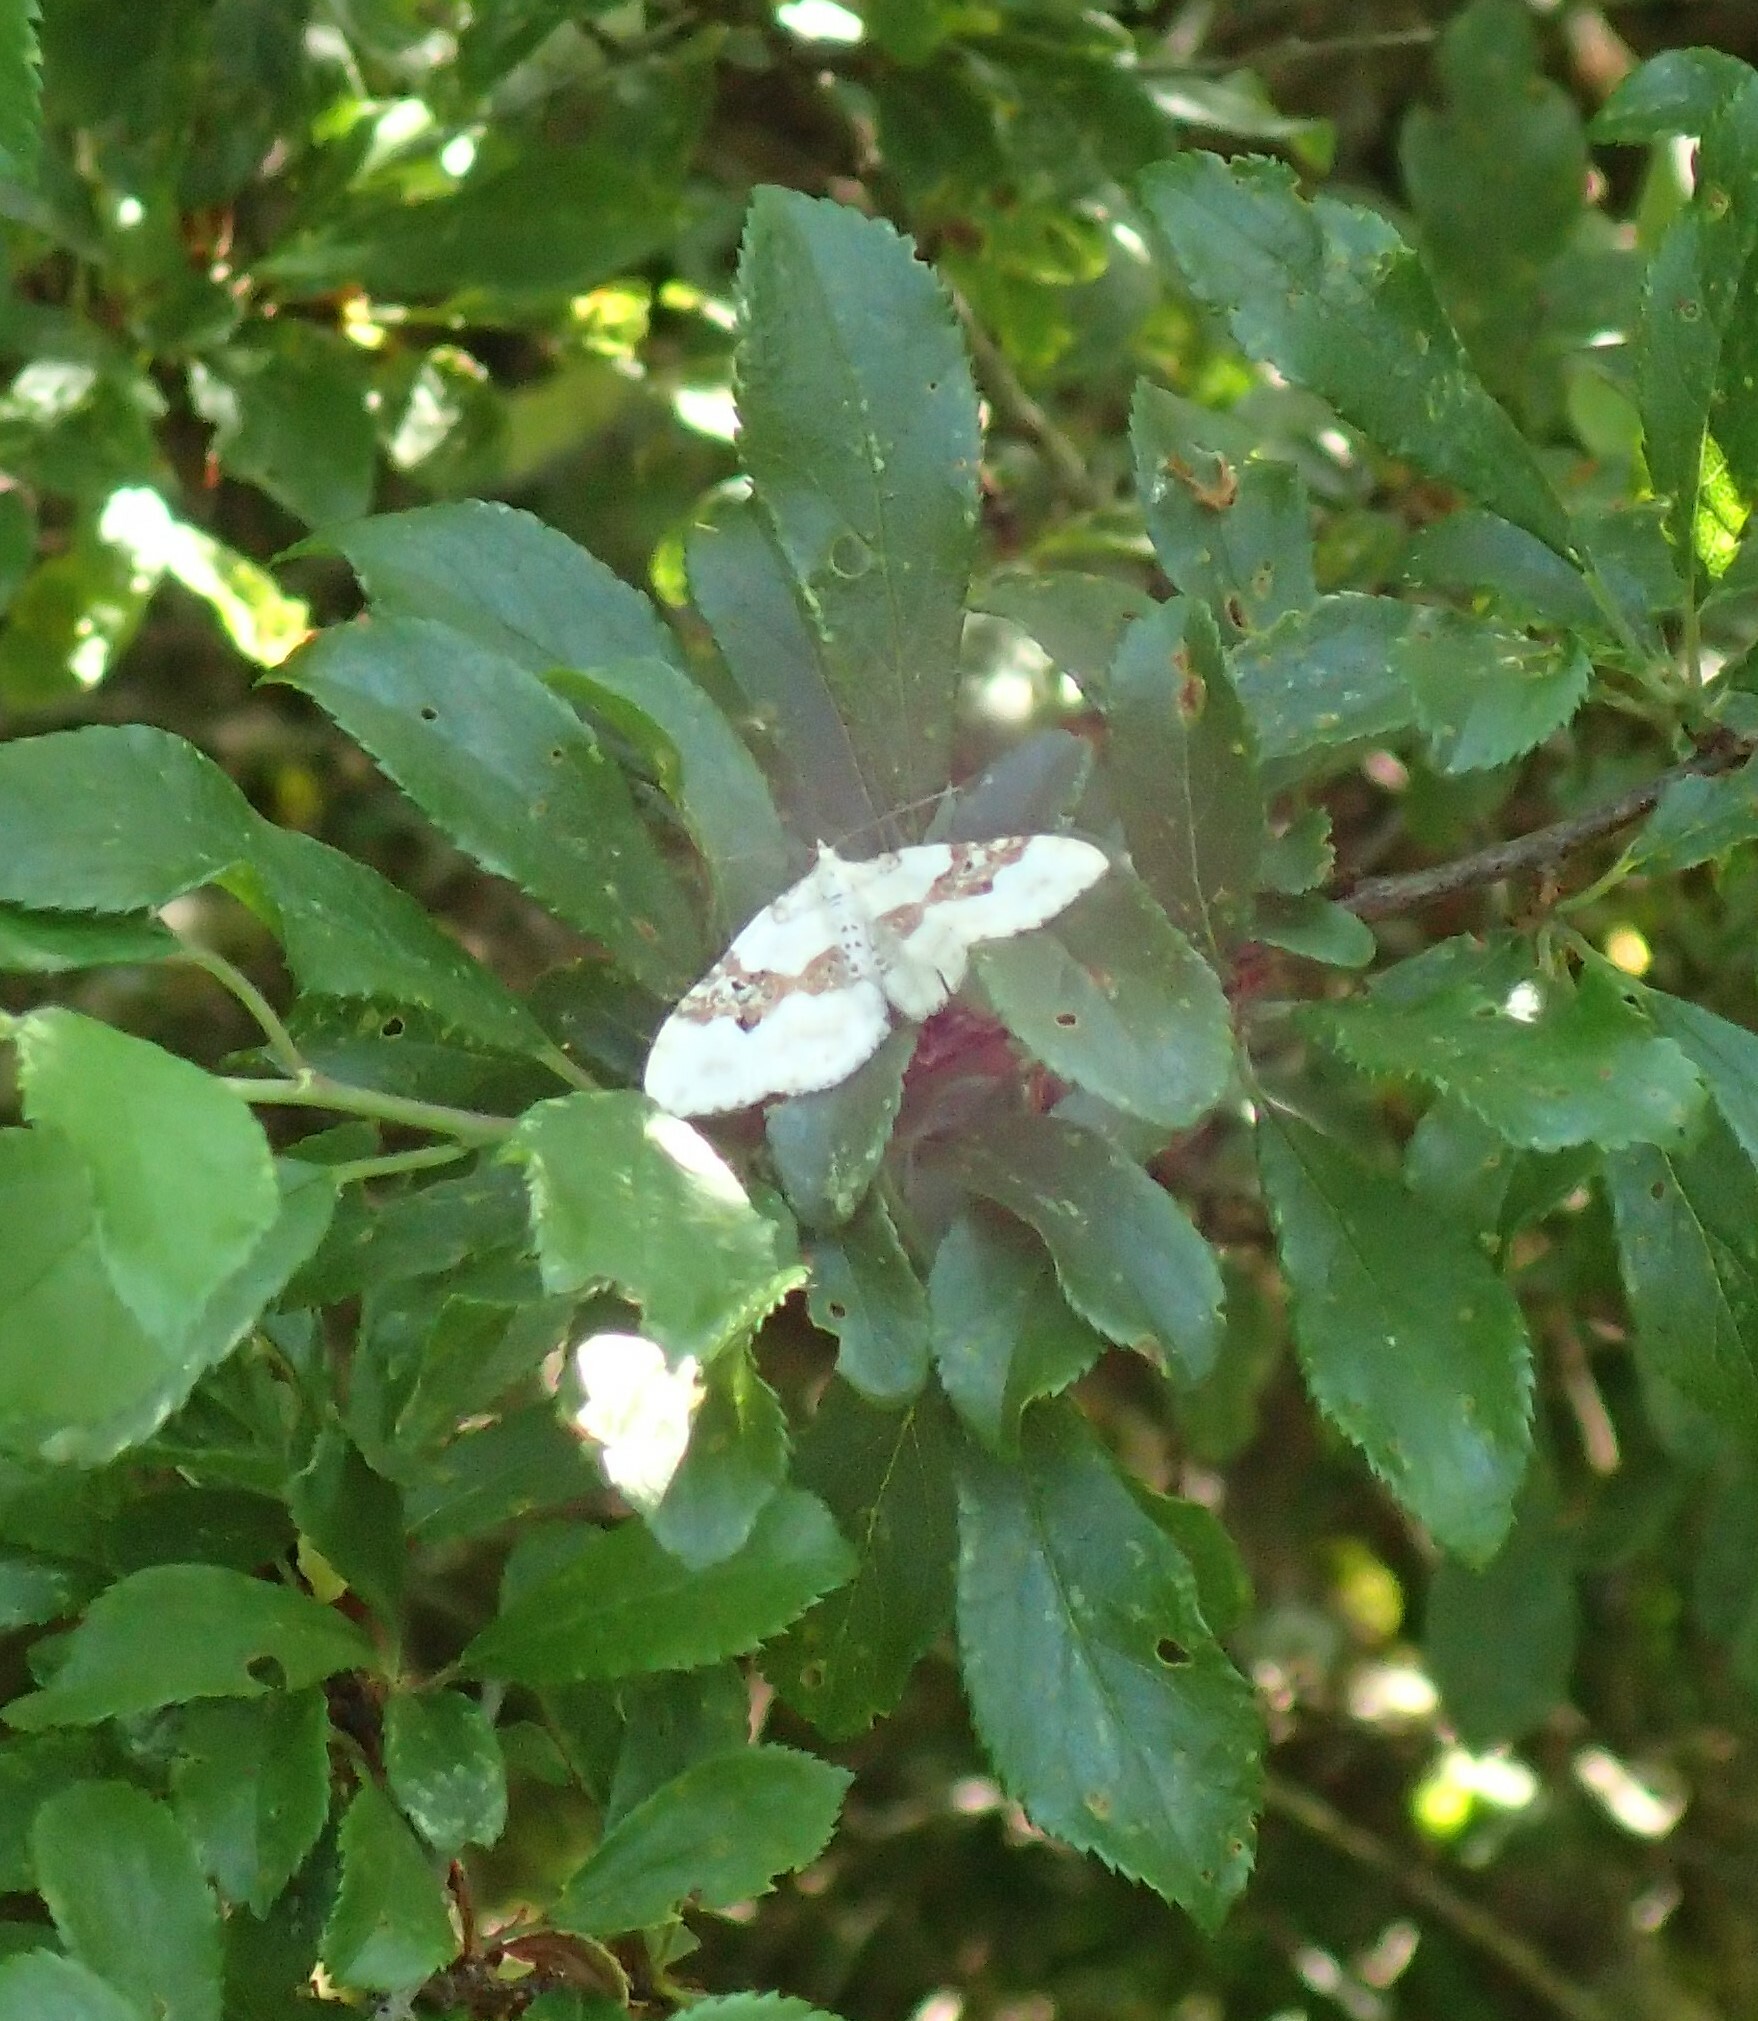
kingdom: Animalia
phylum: Arthropoda
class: Insecta
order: Lepidoptera
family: Geometridae
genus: Xanthorhoe
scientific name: Xanthorhoe montanata
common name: Silver-ground carpet
